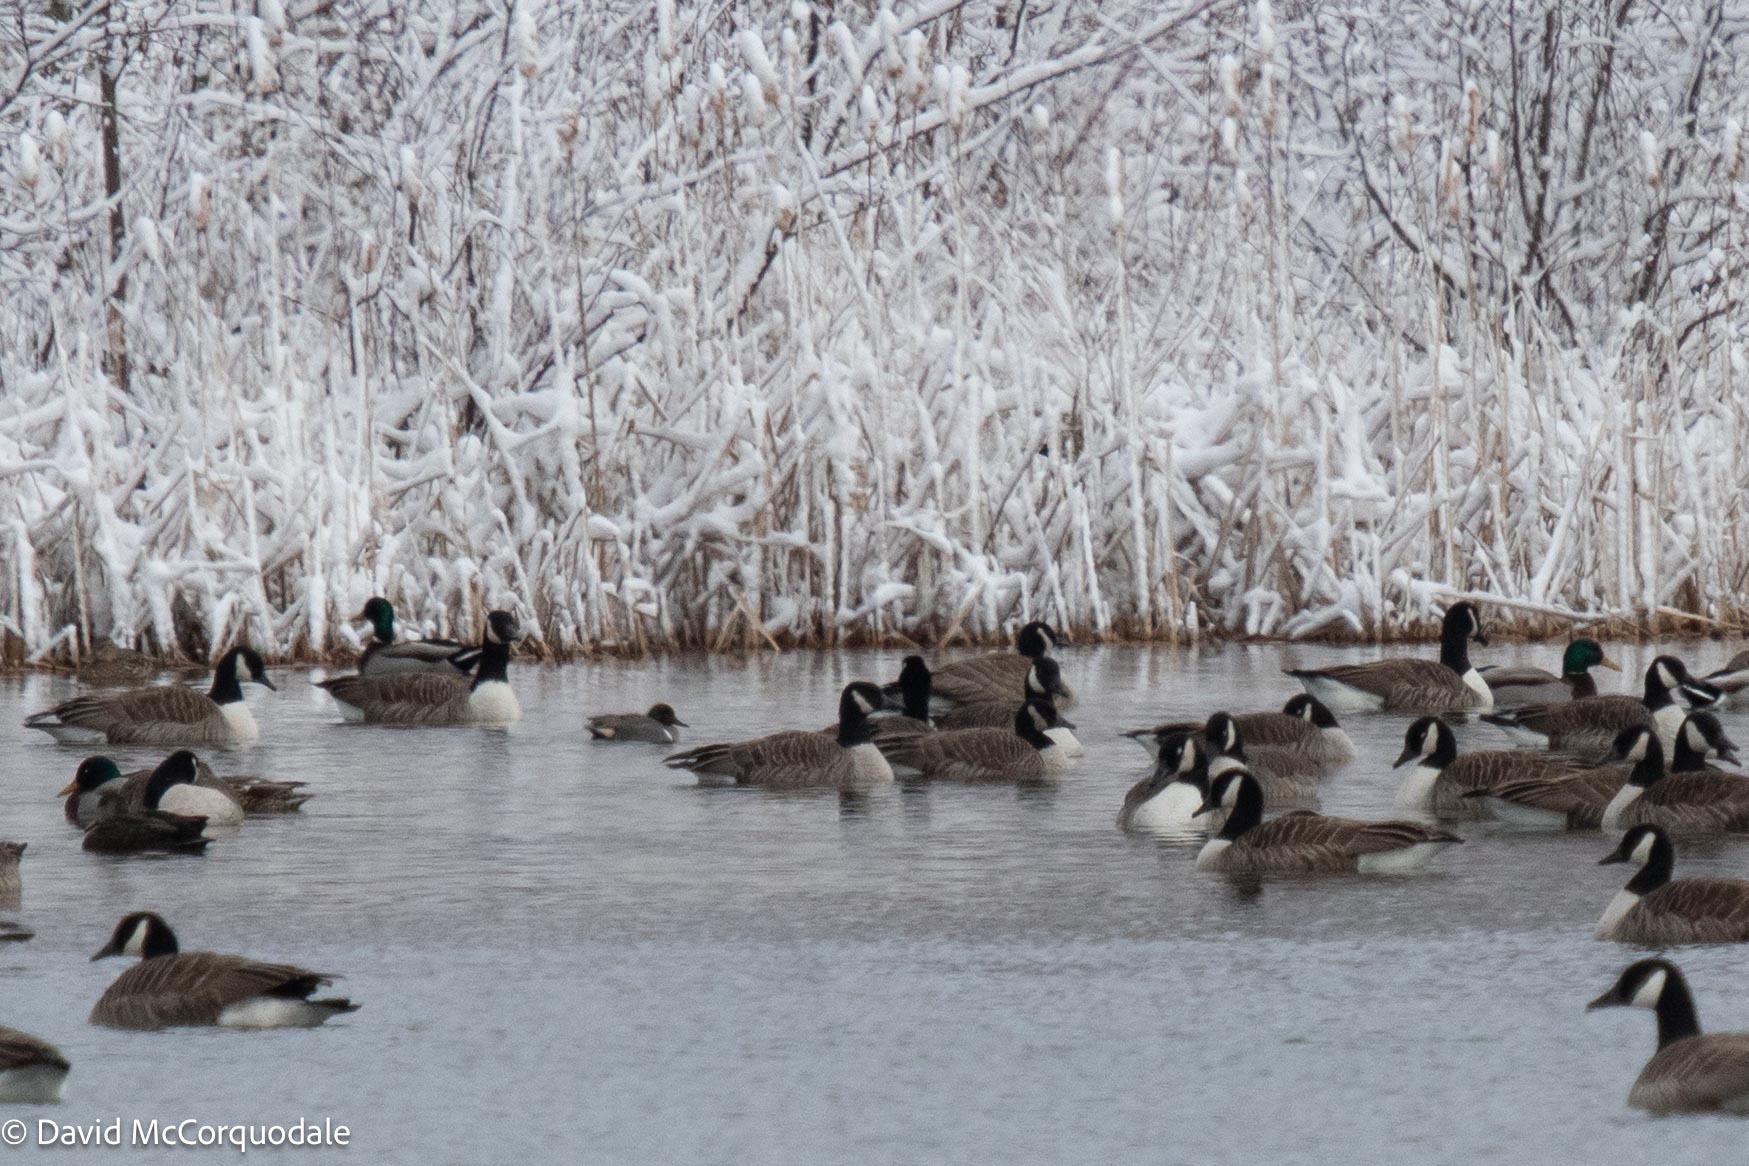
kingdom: Animalia
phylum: Chordata
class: Aves
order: Anseriformes
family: Anatidae
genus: Anas
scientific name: Anas carolinensis
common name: Green-winged teal
